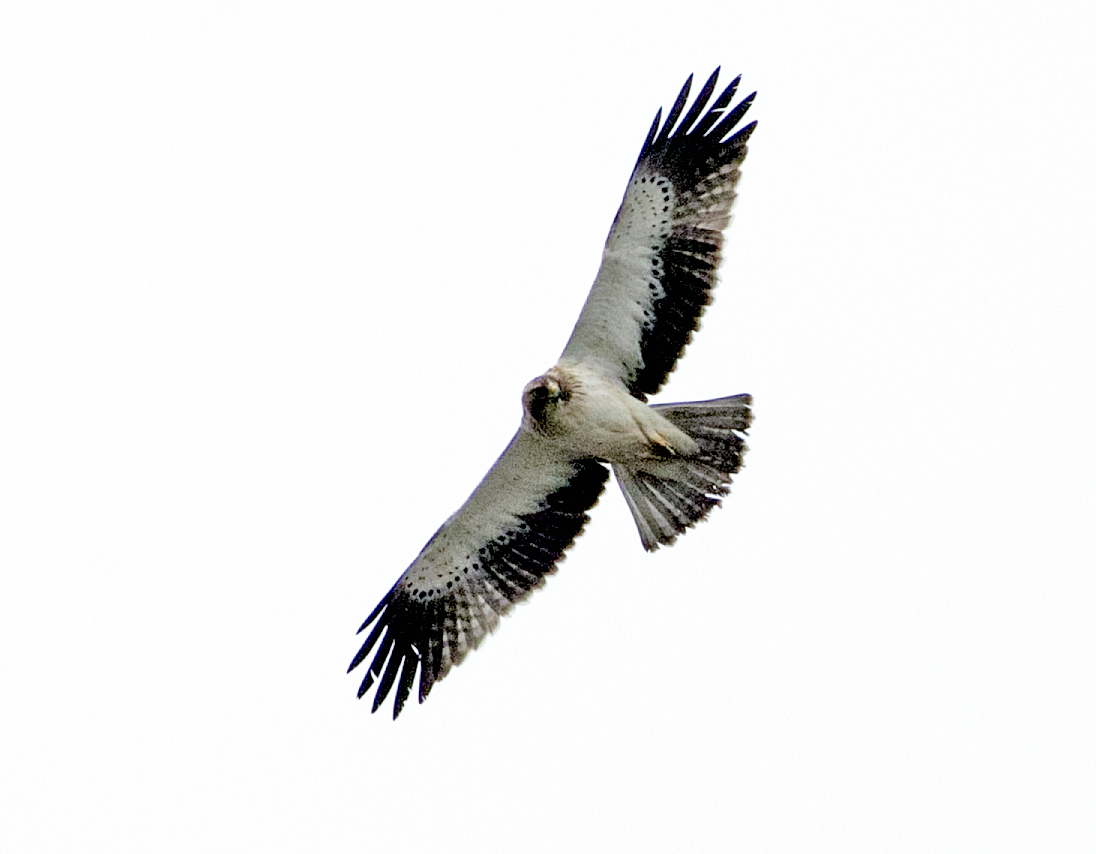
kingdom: Animalia
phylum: Chordata
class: Aves
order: Accipitriformes
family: Accipitridae
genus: Hieraaetus
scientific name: Hieraaetus pennatus
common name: Booted eagle
